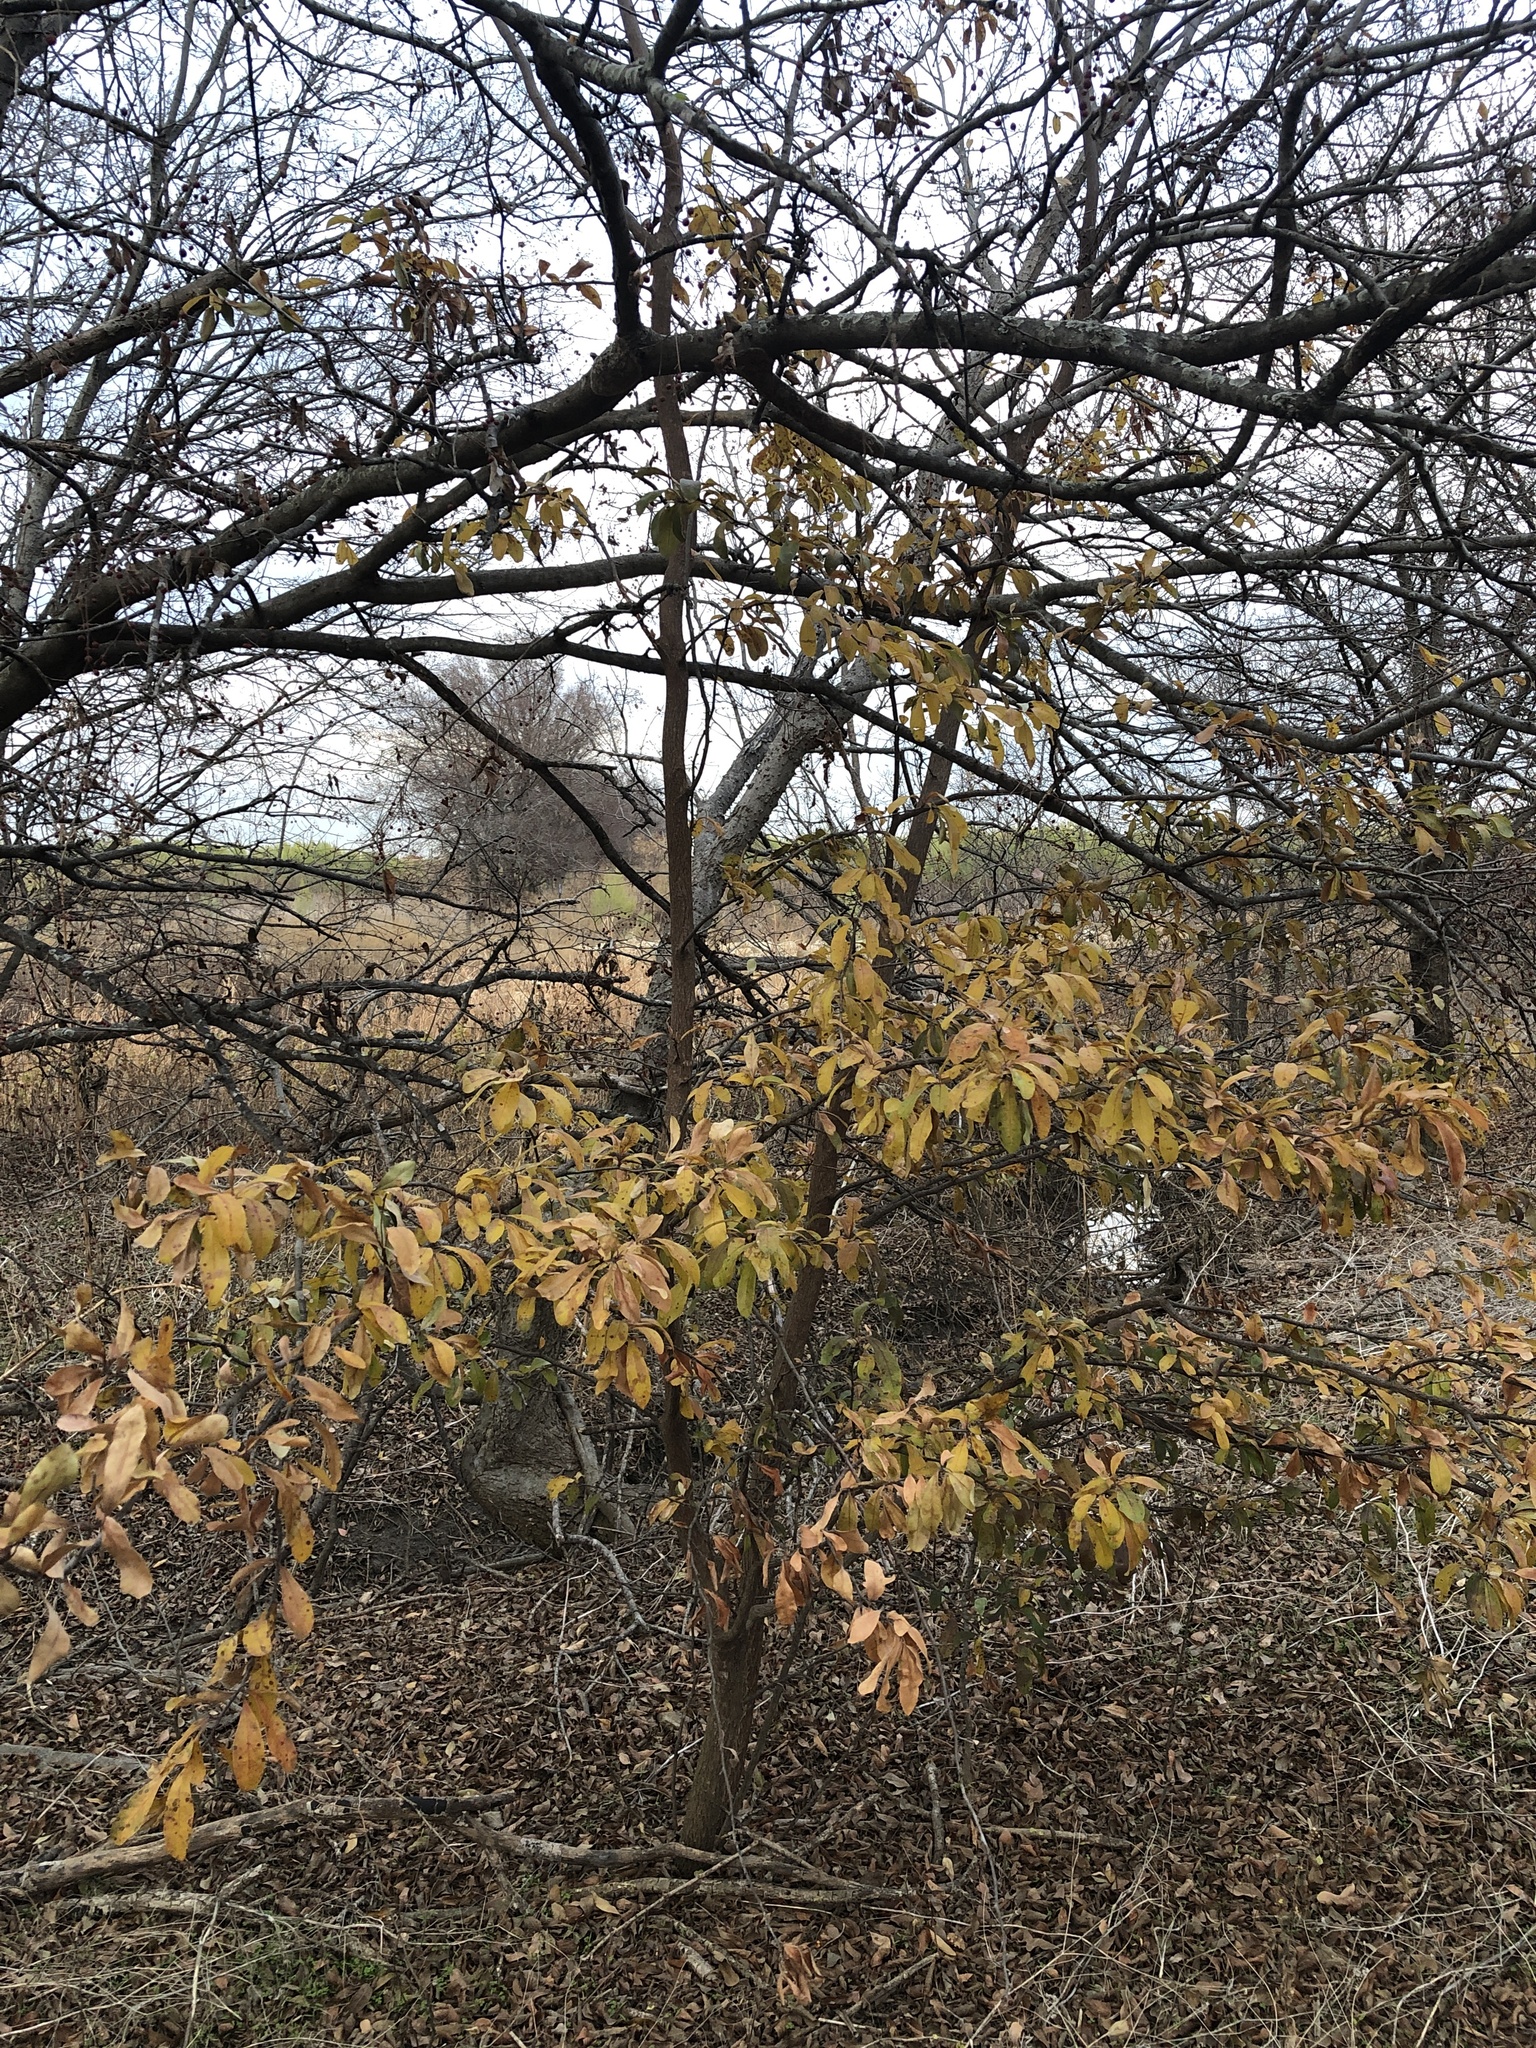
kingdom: Plantae
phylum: Tracheophyta
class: Magnoliopsida
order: Ericales
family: Sapotaceae
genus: Sideroxylon
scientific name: Sideroxylon lanuginosum
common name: Chittamwood
